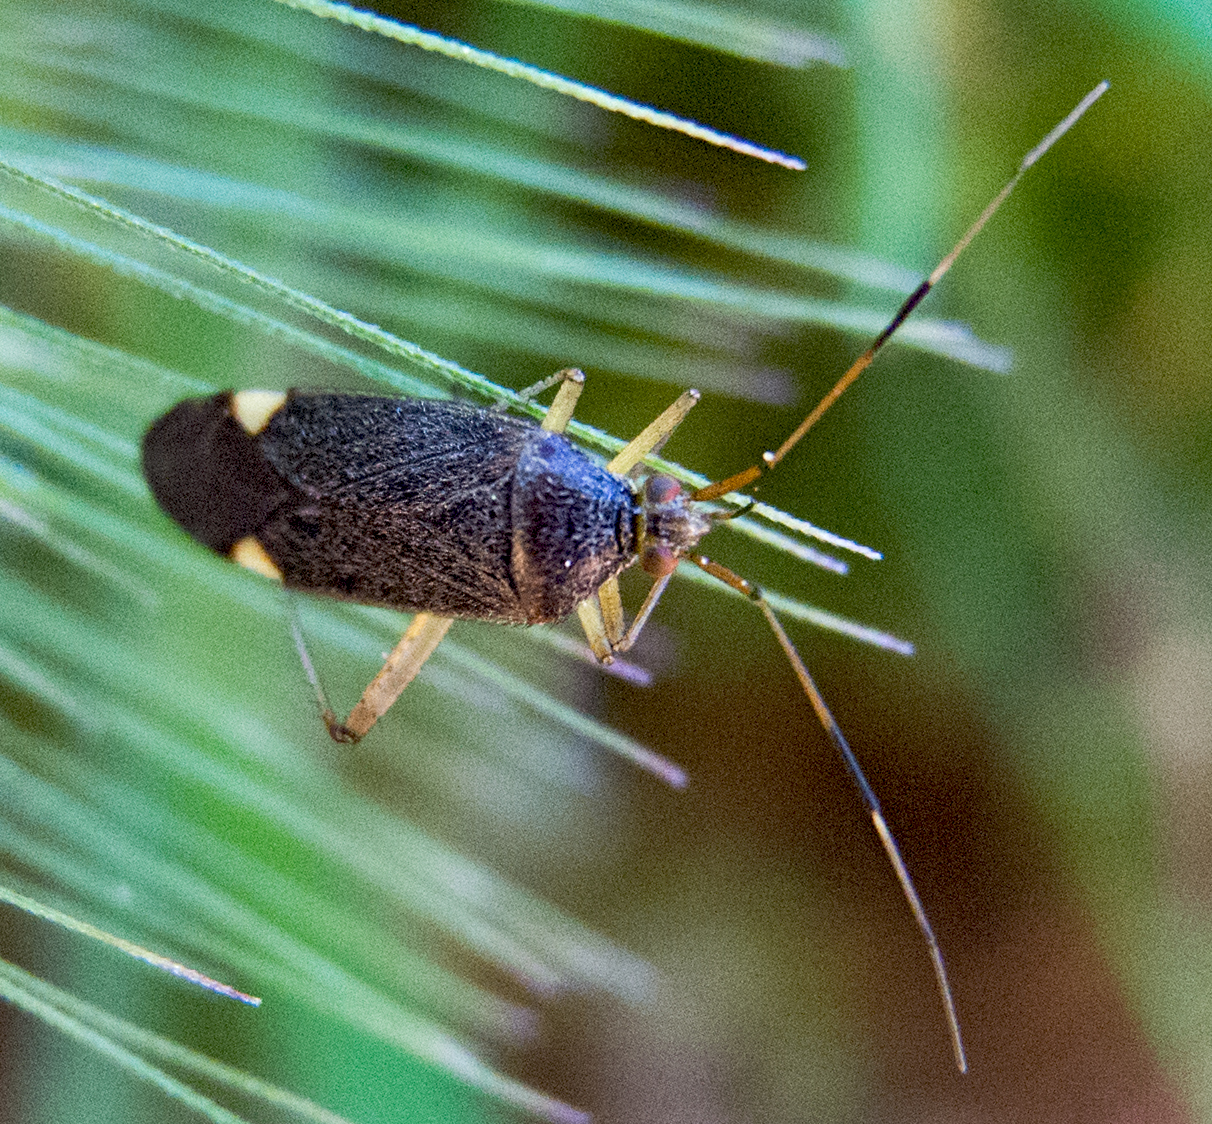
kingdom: Animalia
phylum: Arthropoda
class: Insecta
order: Hemiptera
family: Miridae
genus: Closterotomus
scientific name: Closterotomus annulus
